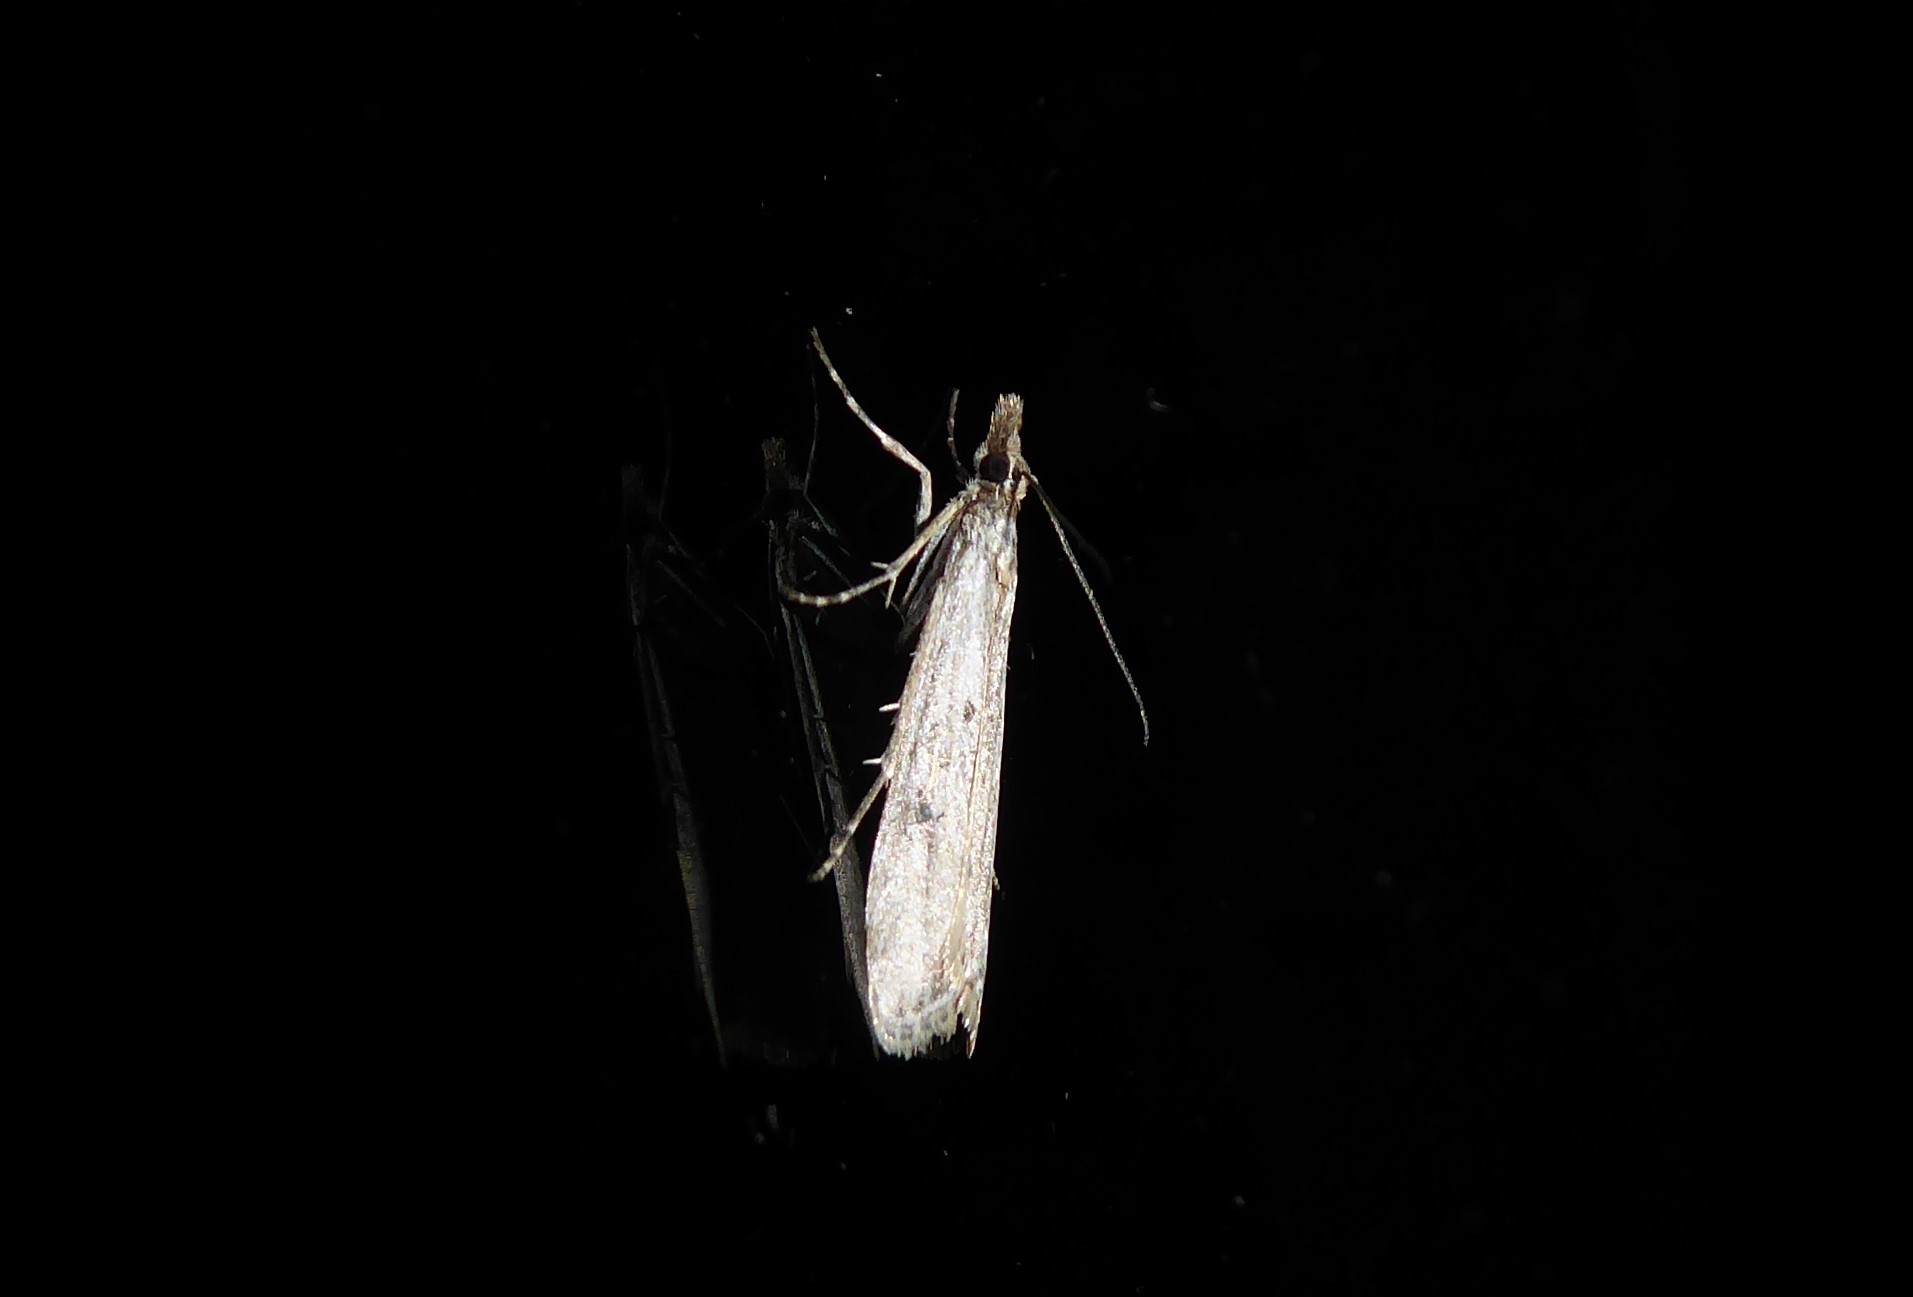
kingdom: Animalia
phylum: Arthropoda
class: Insecta
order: Lepidoptera
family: Crambidae
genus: Eudonia
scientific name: Eudonia leptalea
